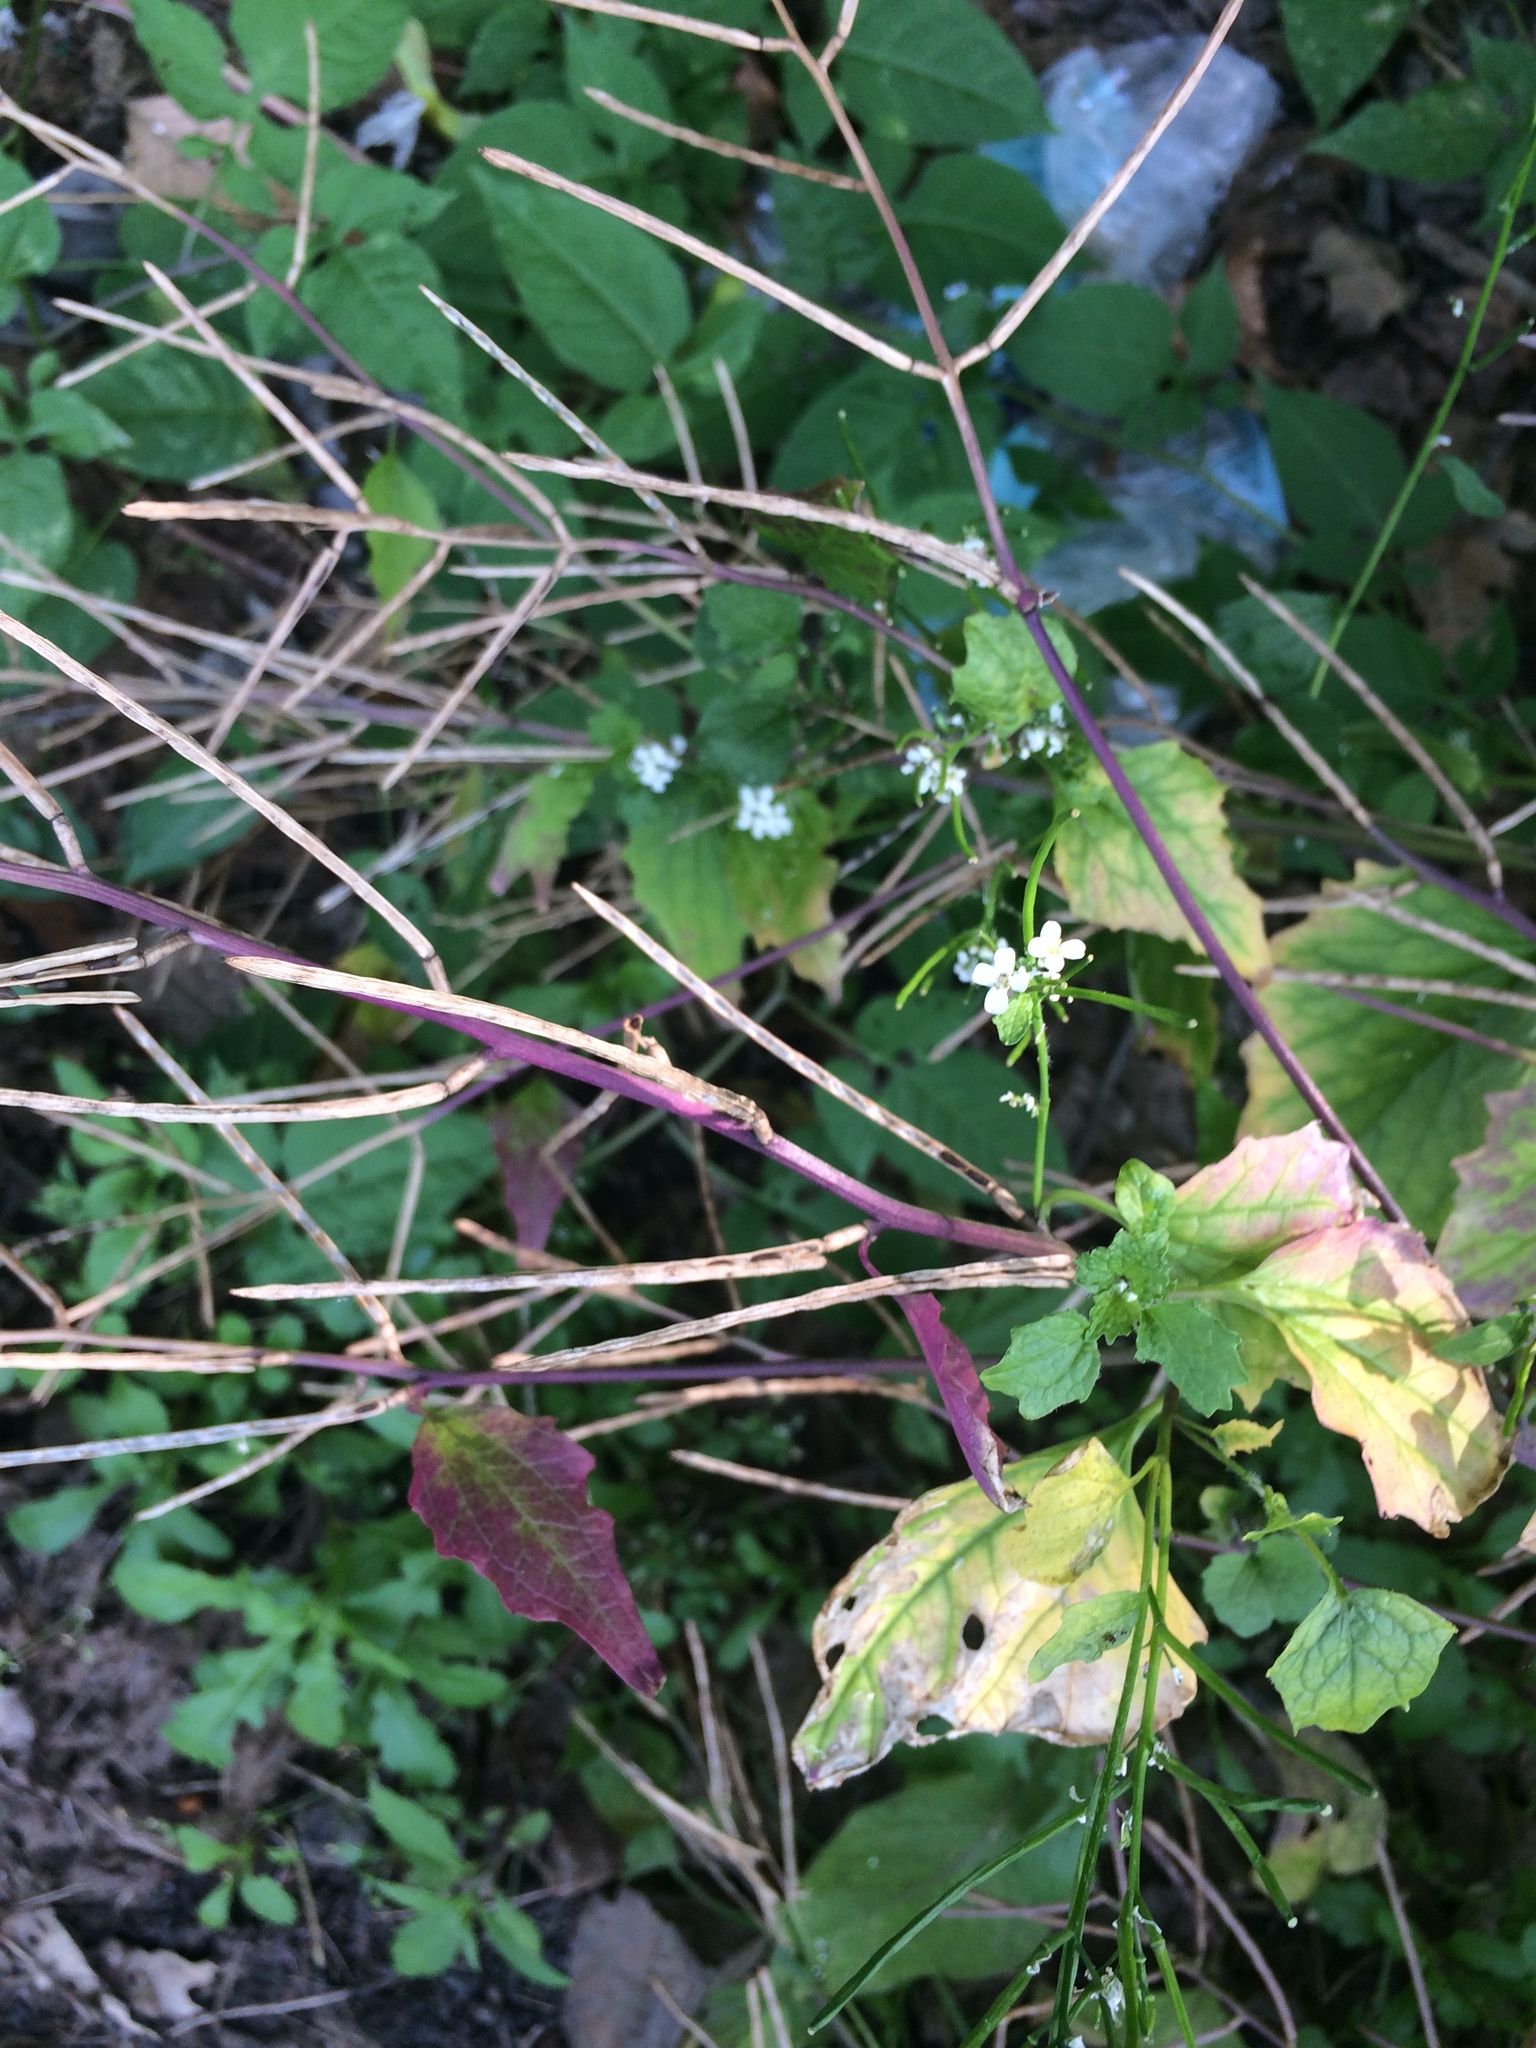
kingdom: Plantae
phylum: Tracheophyta
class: Magnoliopsida
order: Brassicales
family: Brassicaceae
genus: Alliaria
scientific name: Alliaria petiolata
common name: Garlic mustard
